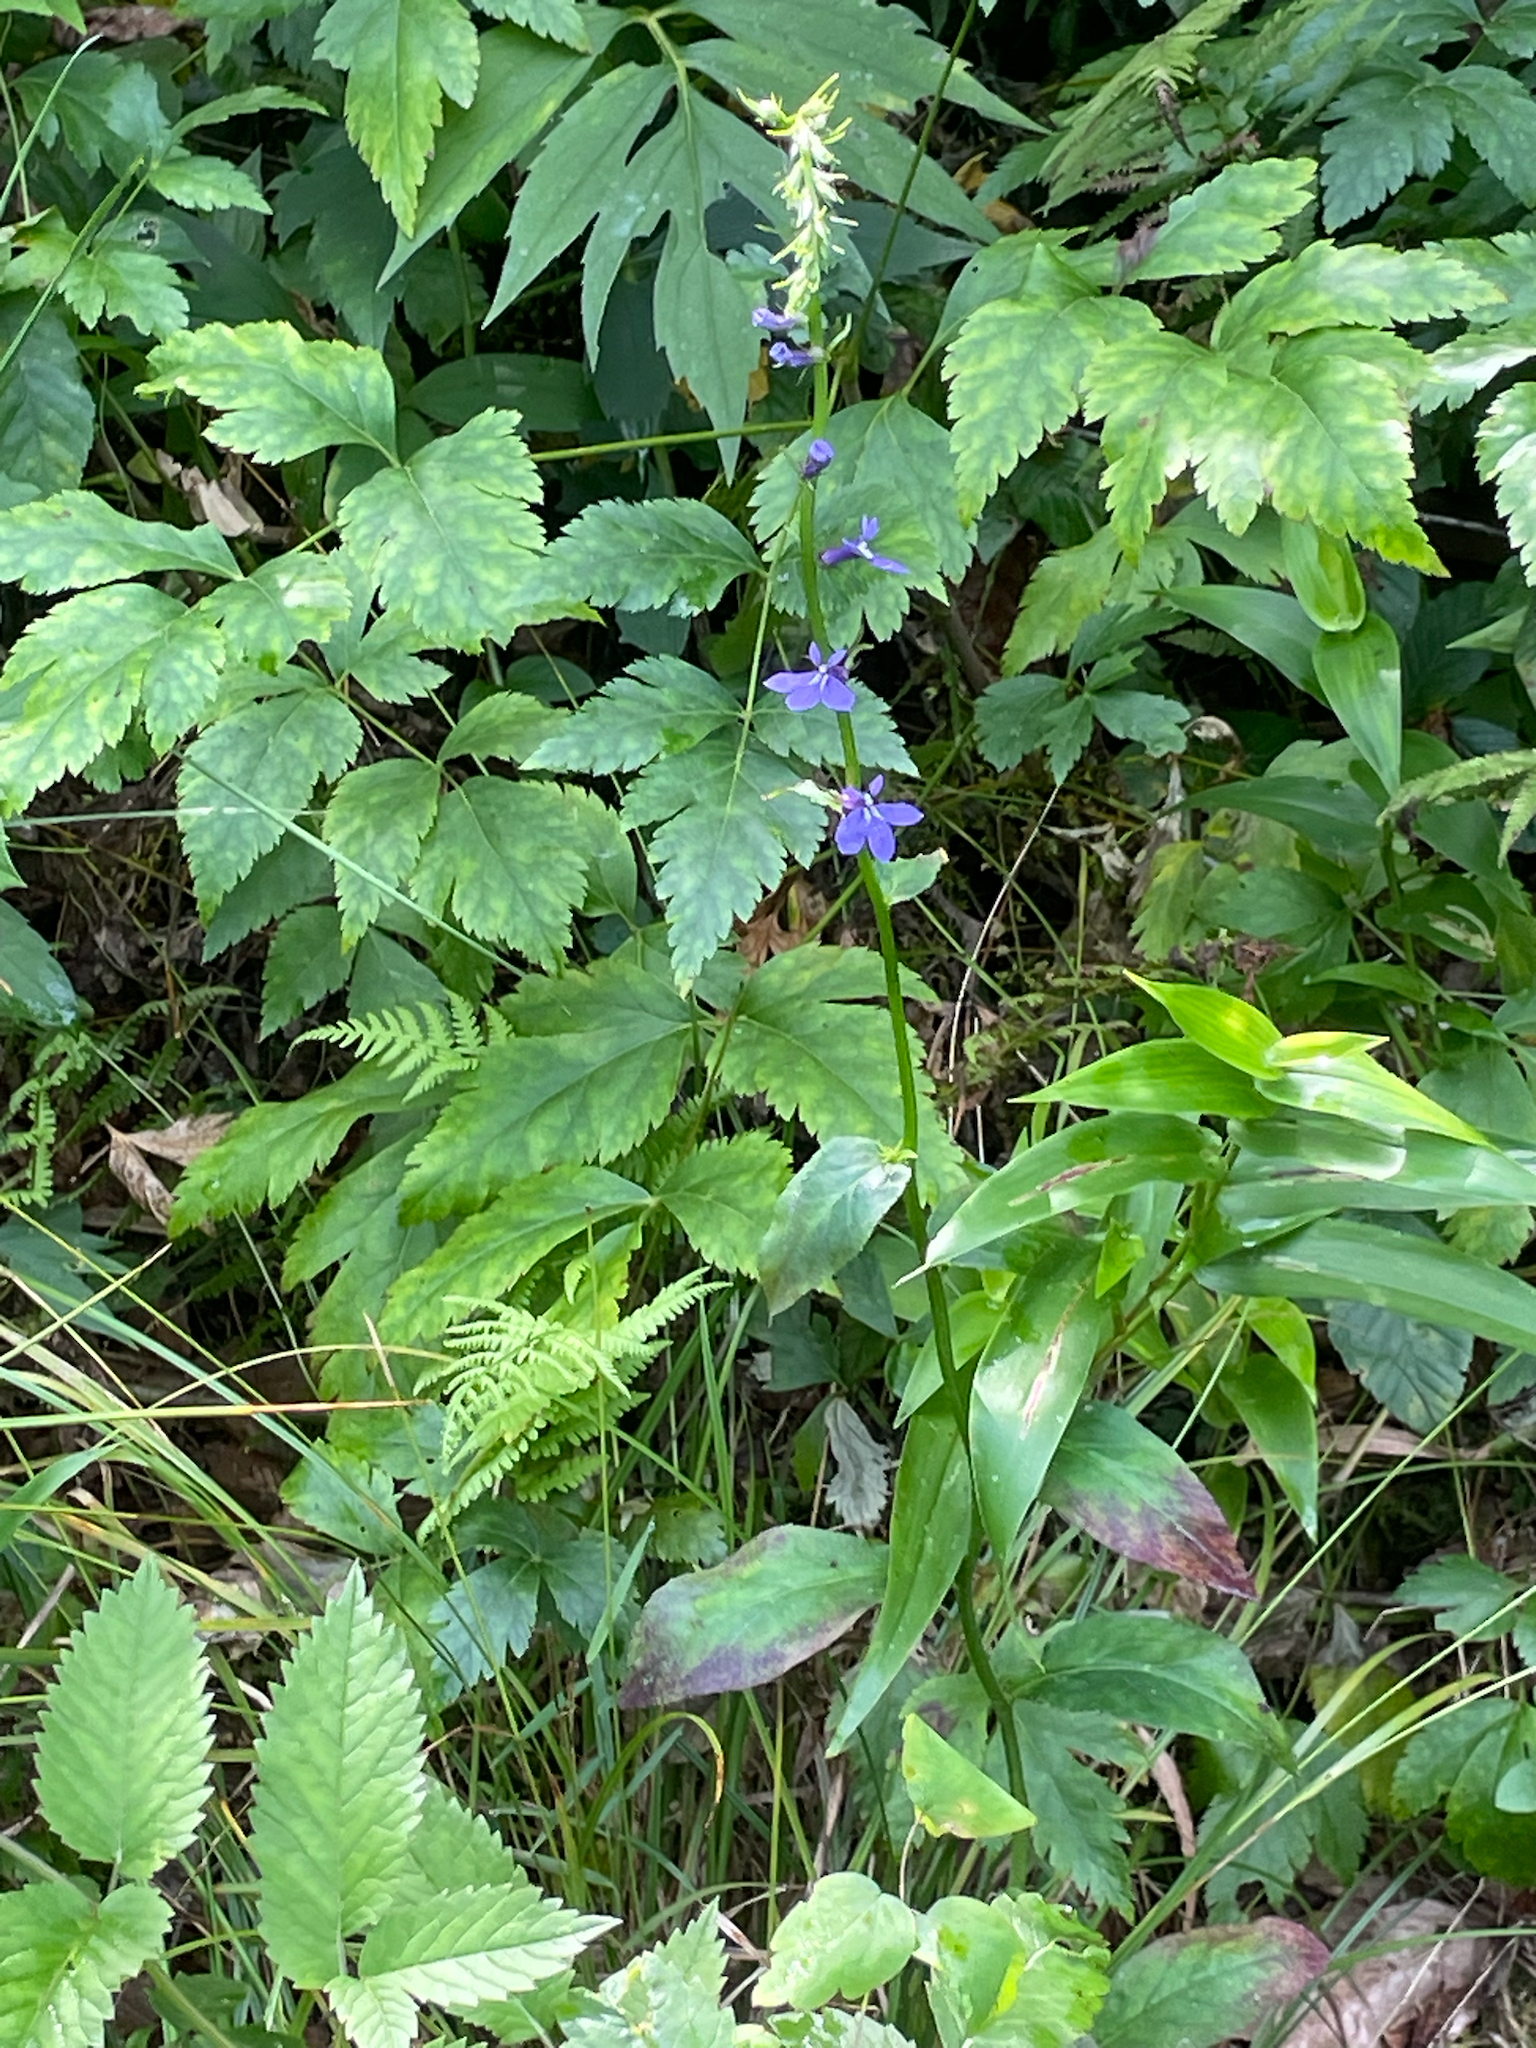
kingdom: Plantae
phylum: Tracheophyta
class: Magnoliopsida
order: Asterales
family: Campanulaceae
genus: Lobelia
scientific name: Lobelia amoena
